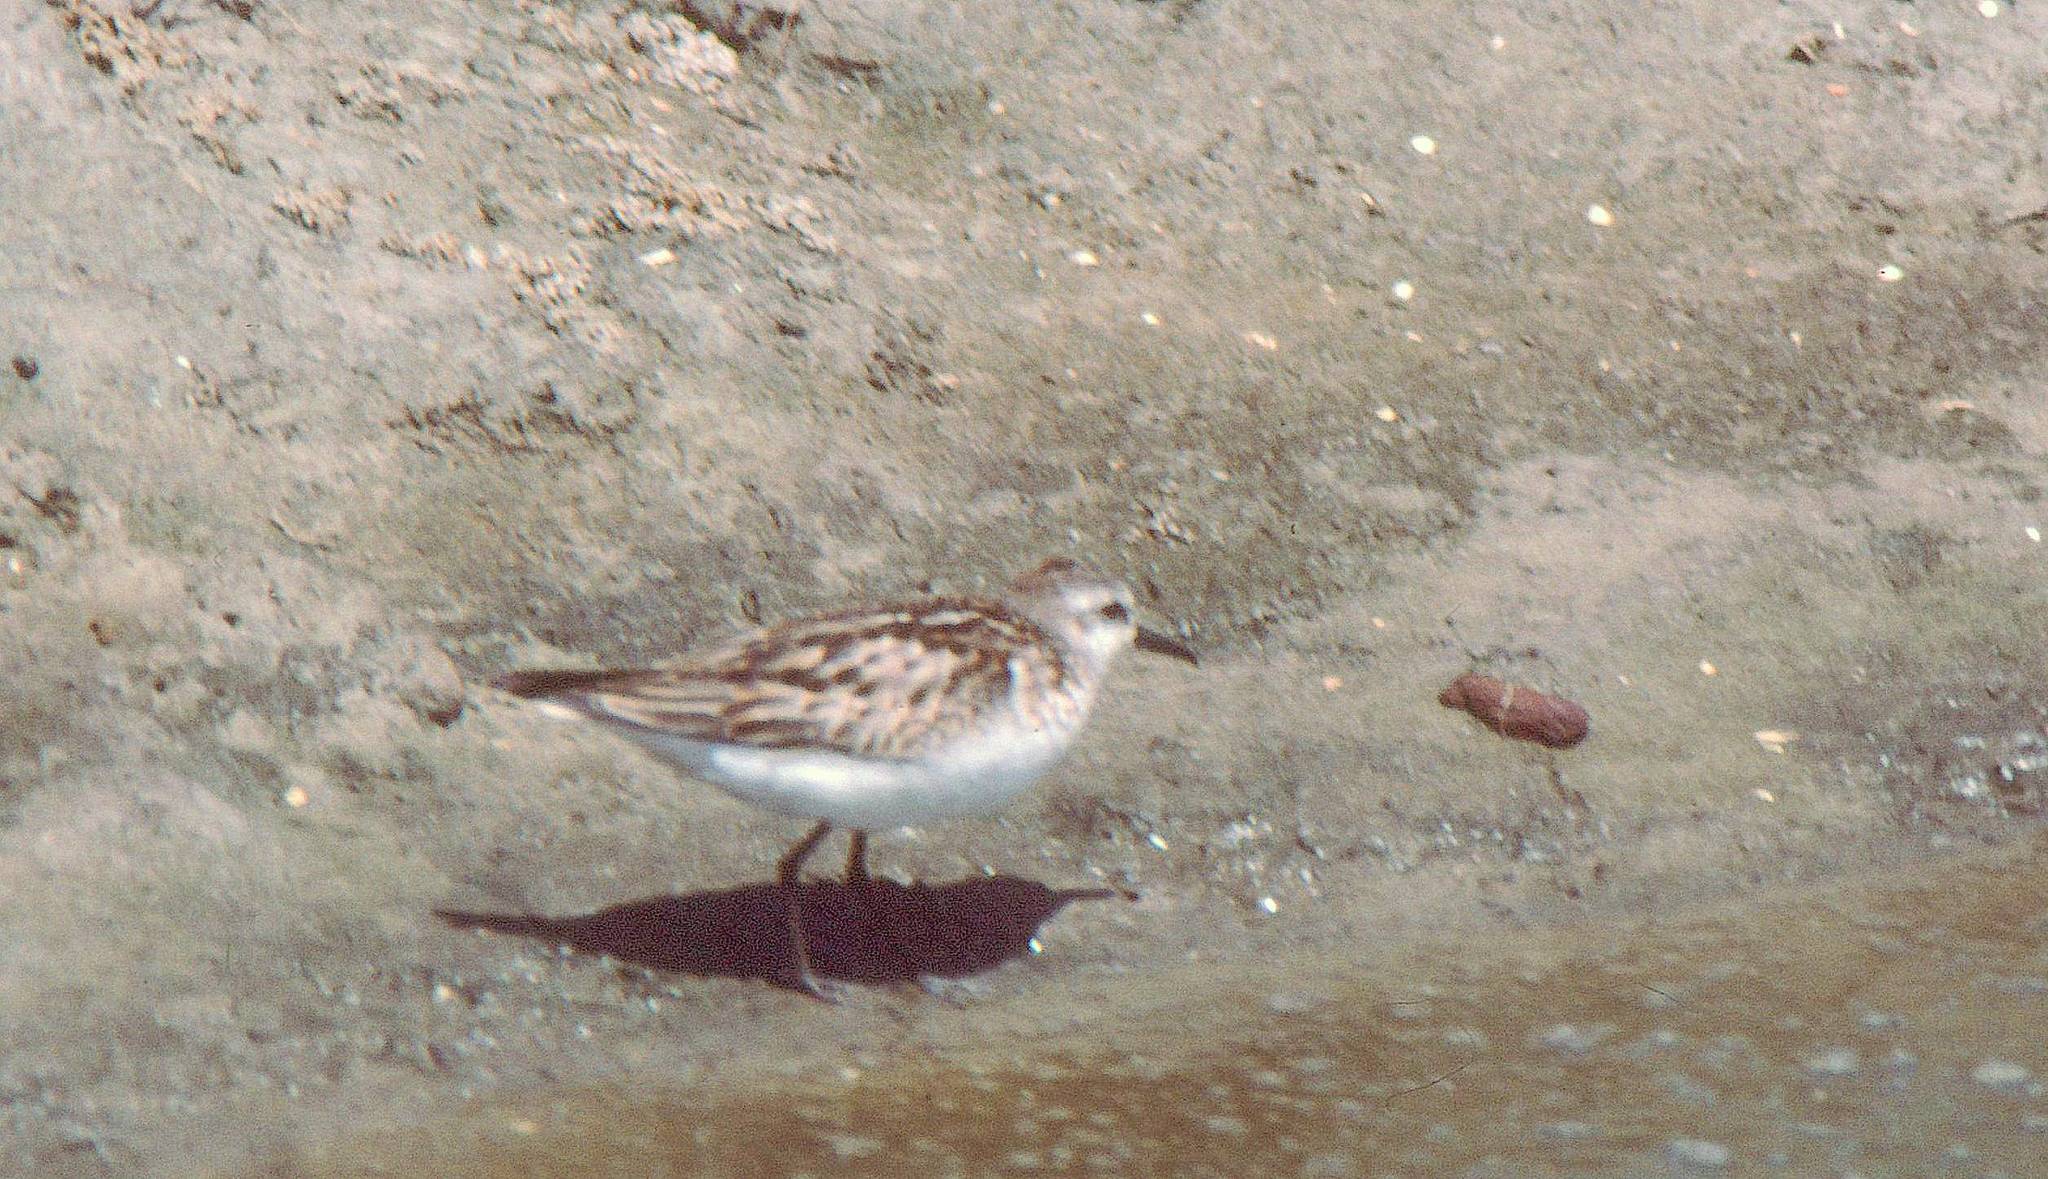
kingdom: Animalia
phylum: Chordata
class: Aves
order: Charadriiformes
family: Scolopacidae
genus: Calidris
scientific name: Calidris minuta
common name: Little stint
